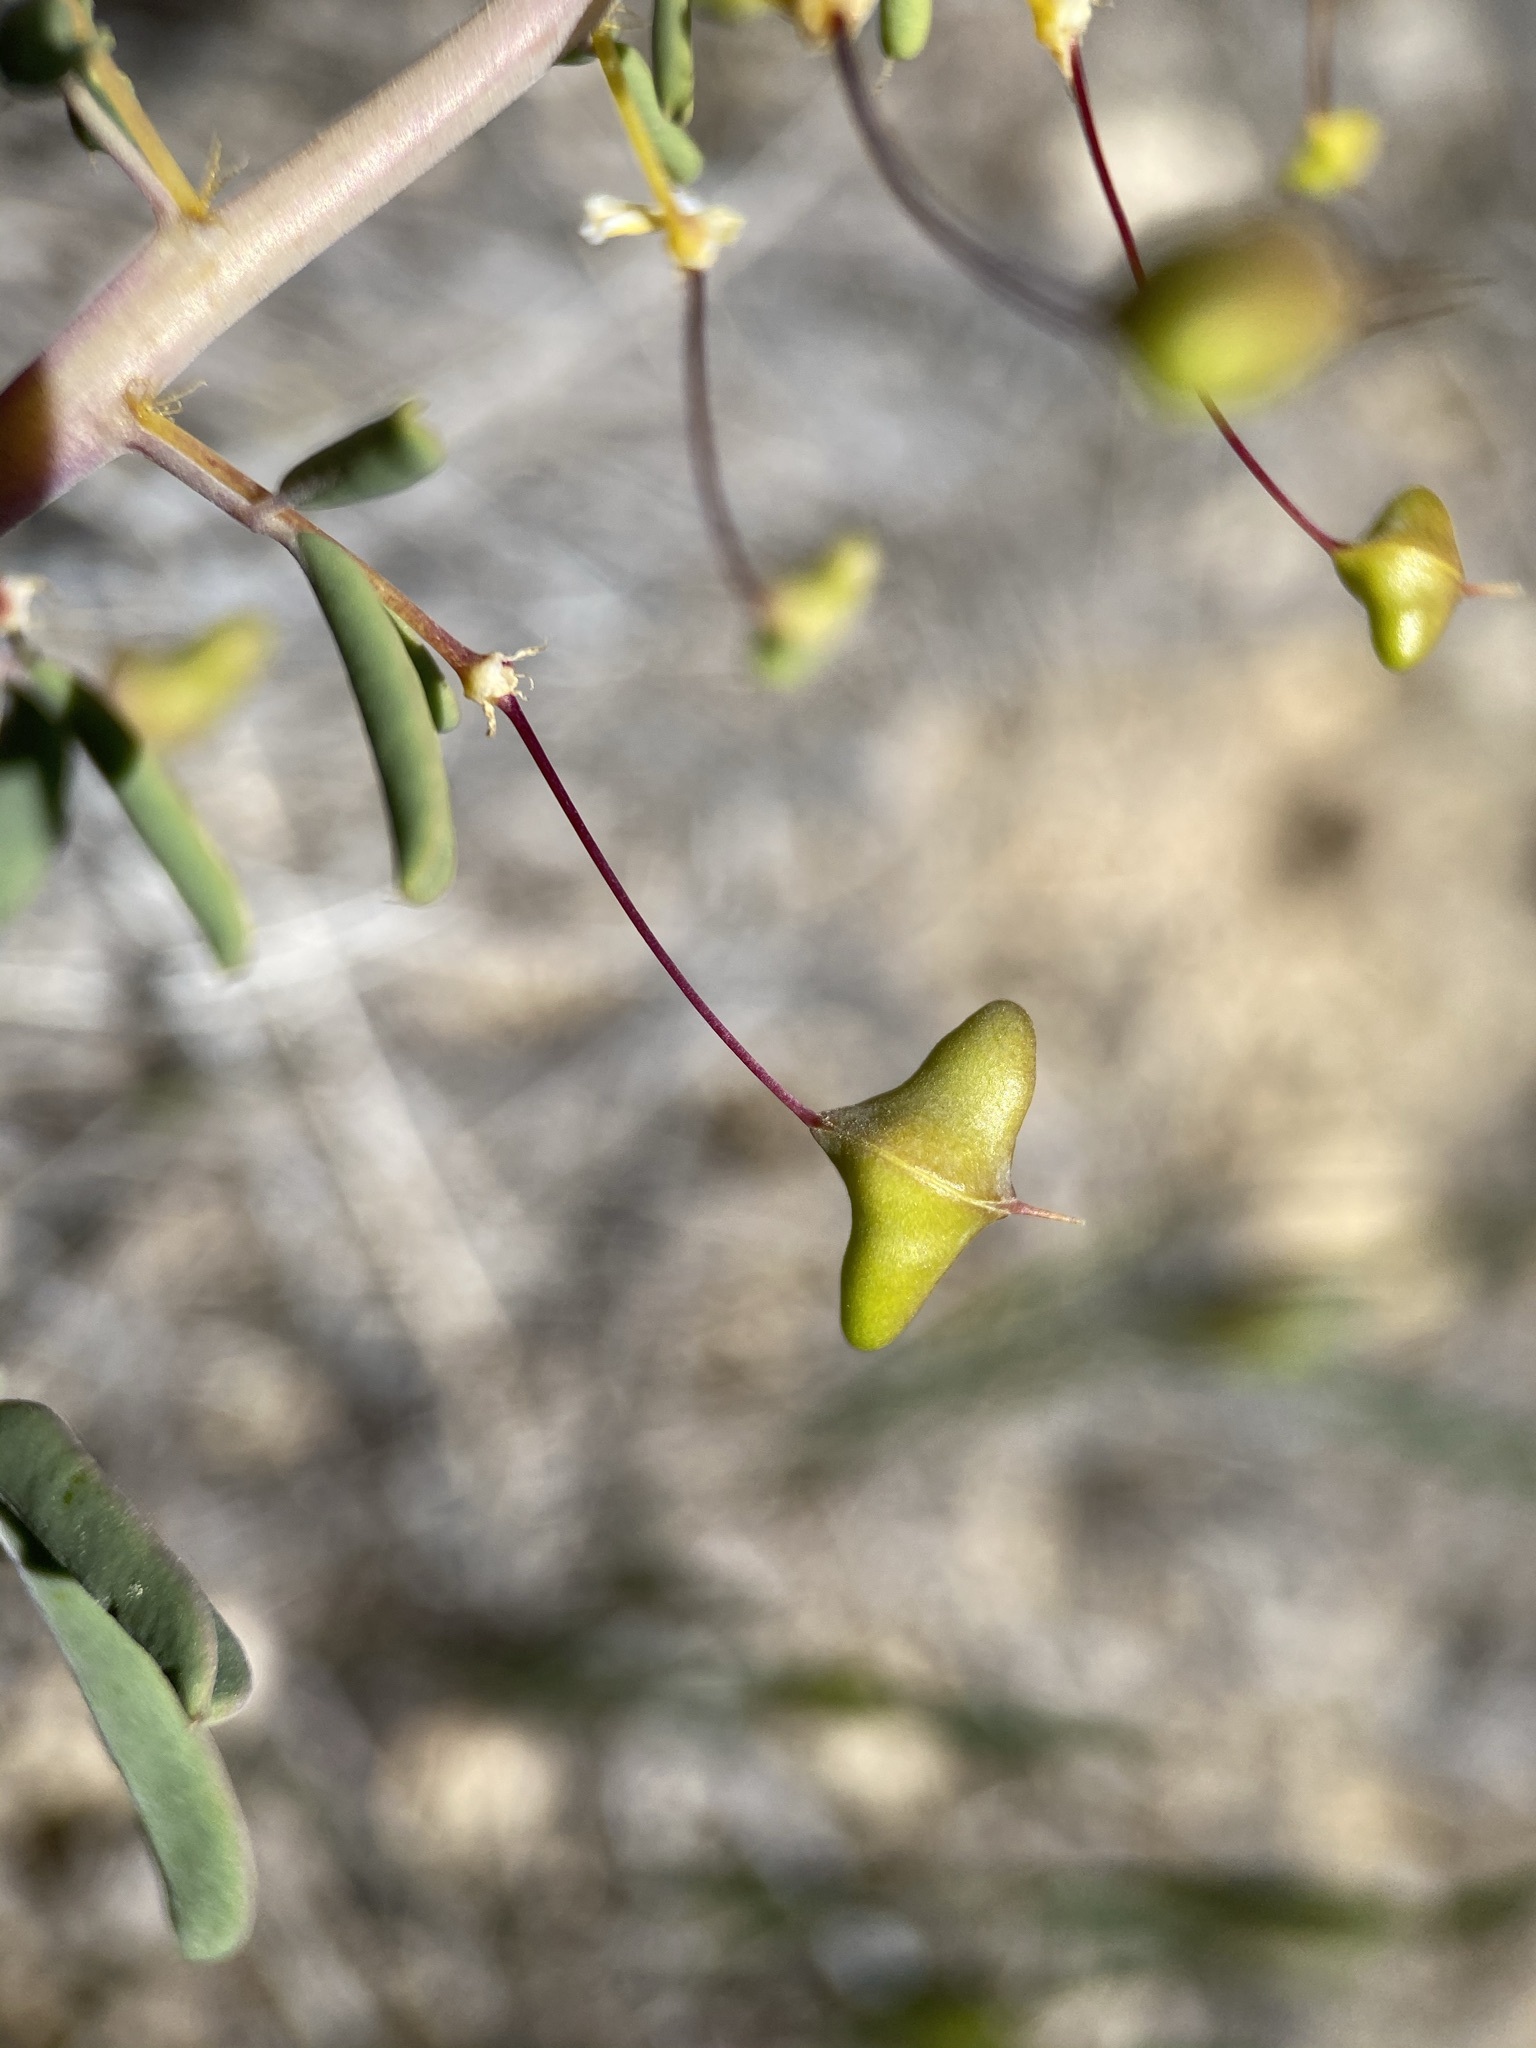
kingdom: Plantae
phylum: Tracheophyta
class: Magnoliopsida
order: Brassicales
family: Cleomaceae
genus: Cleomella
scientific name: Cleomella hillmanii
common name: Desert stinkweed
